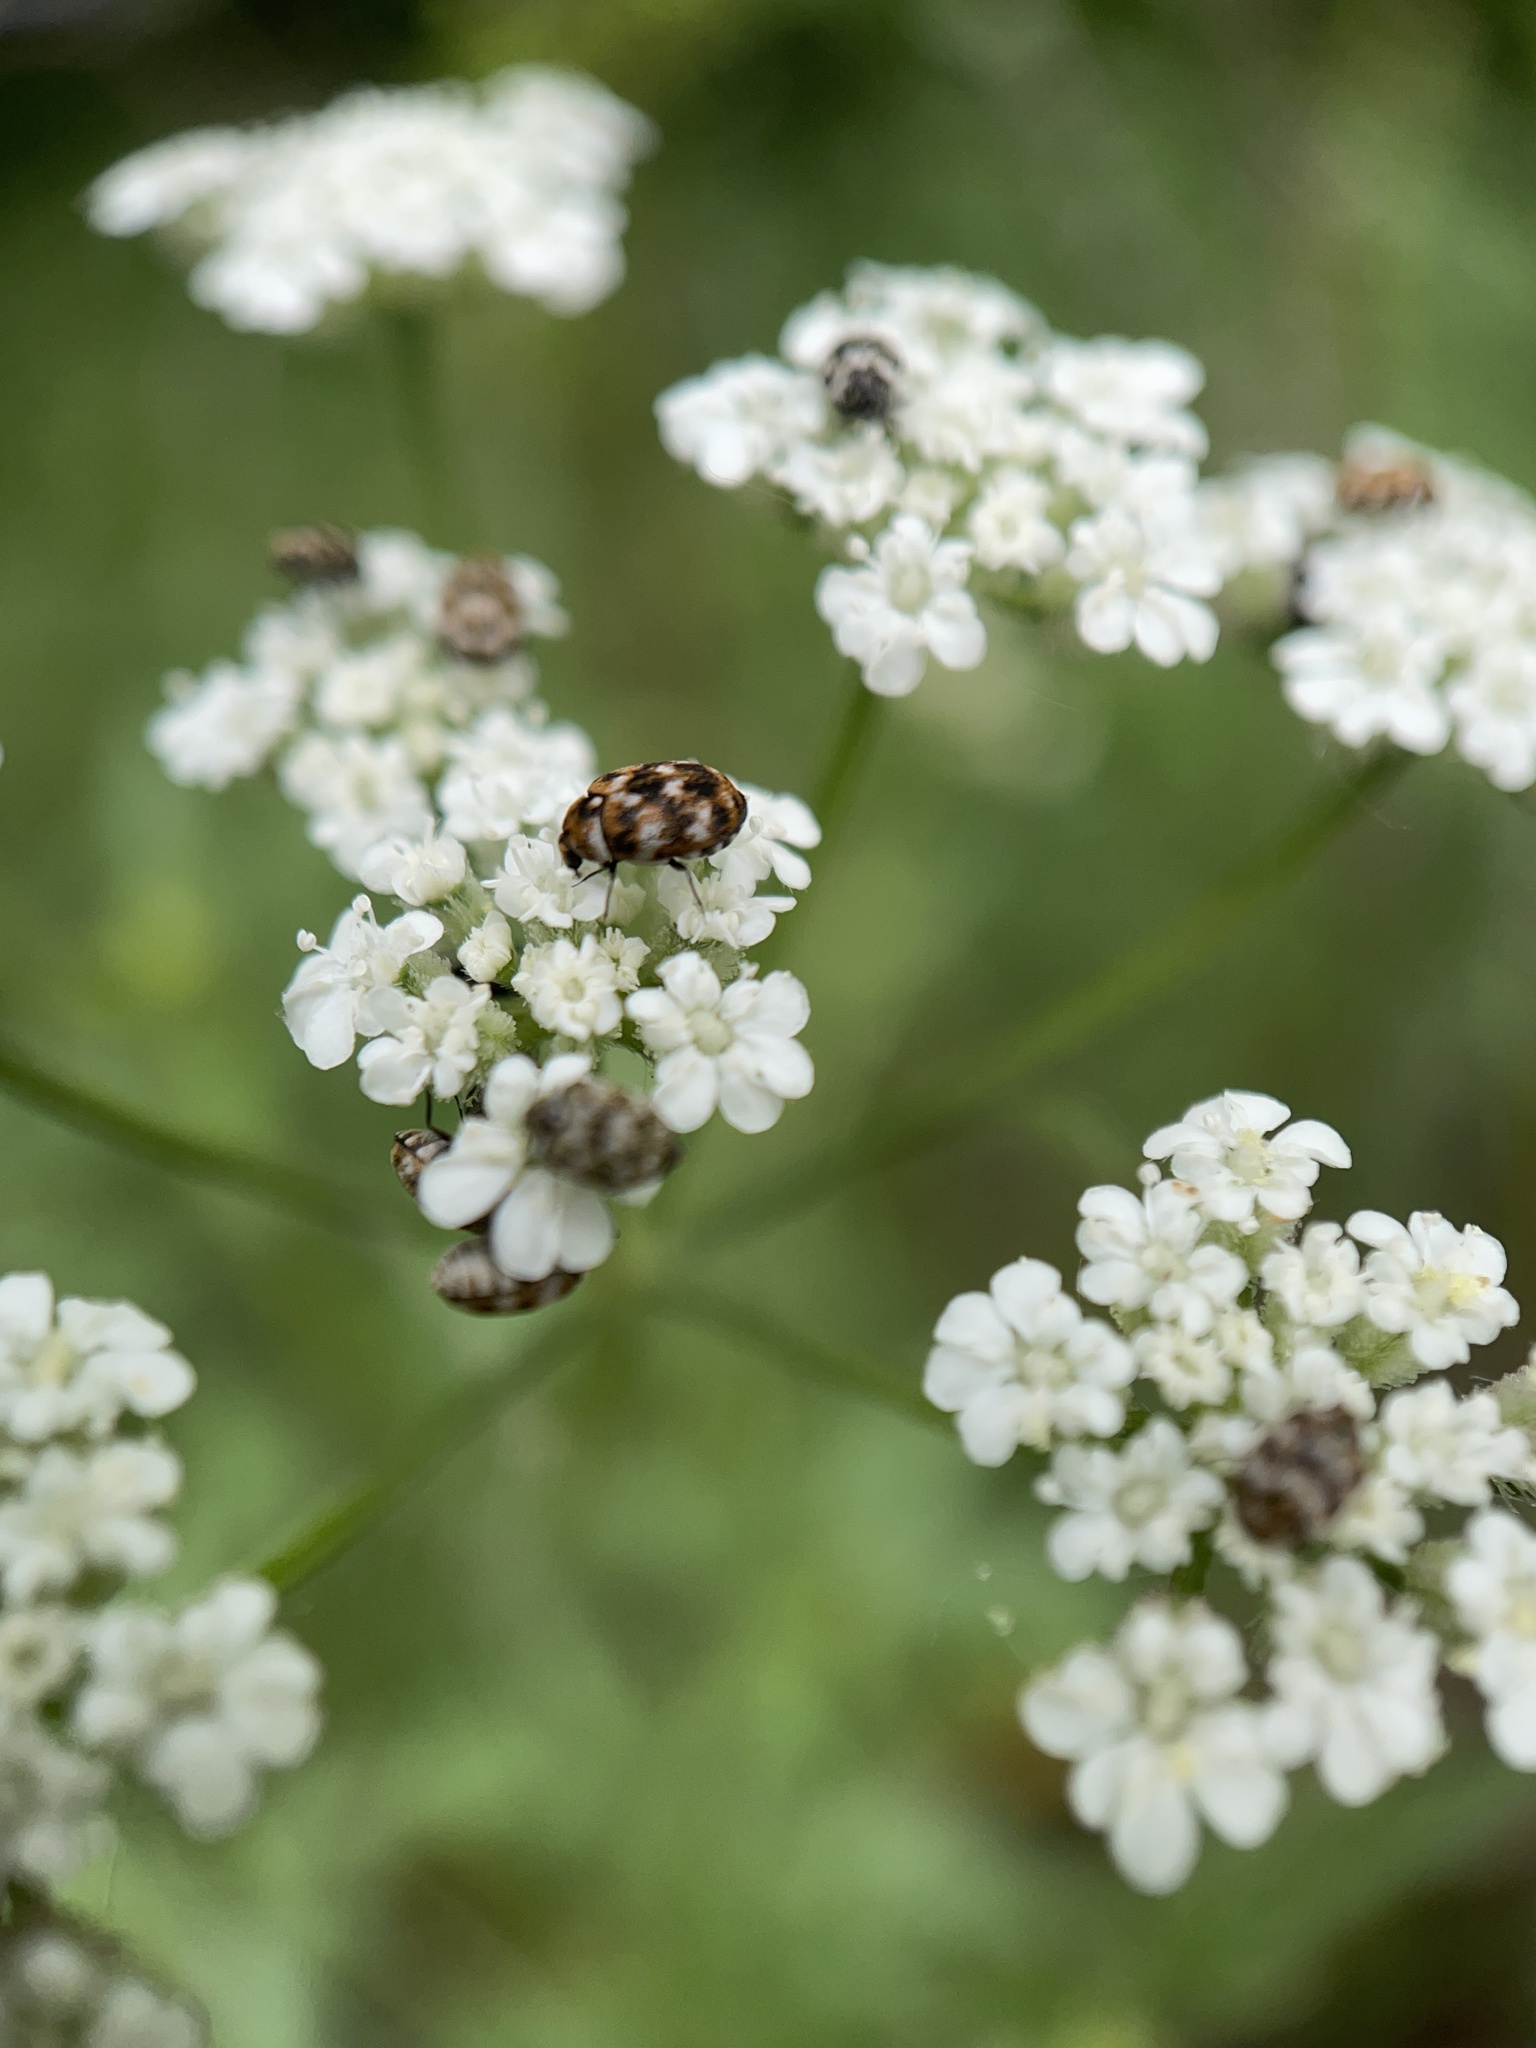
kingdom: Animalia
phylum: Arthropoda
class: Insecta
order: Coleoptera
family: Dermestidae
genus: Anthrenus
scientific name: Anthrenus verbasci
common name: Varied carpet beetle
